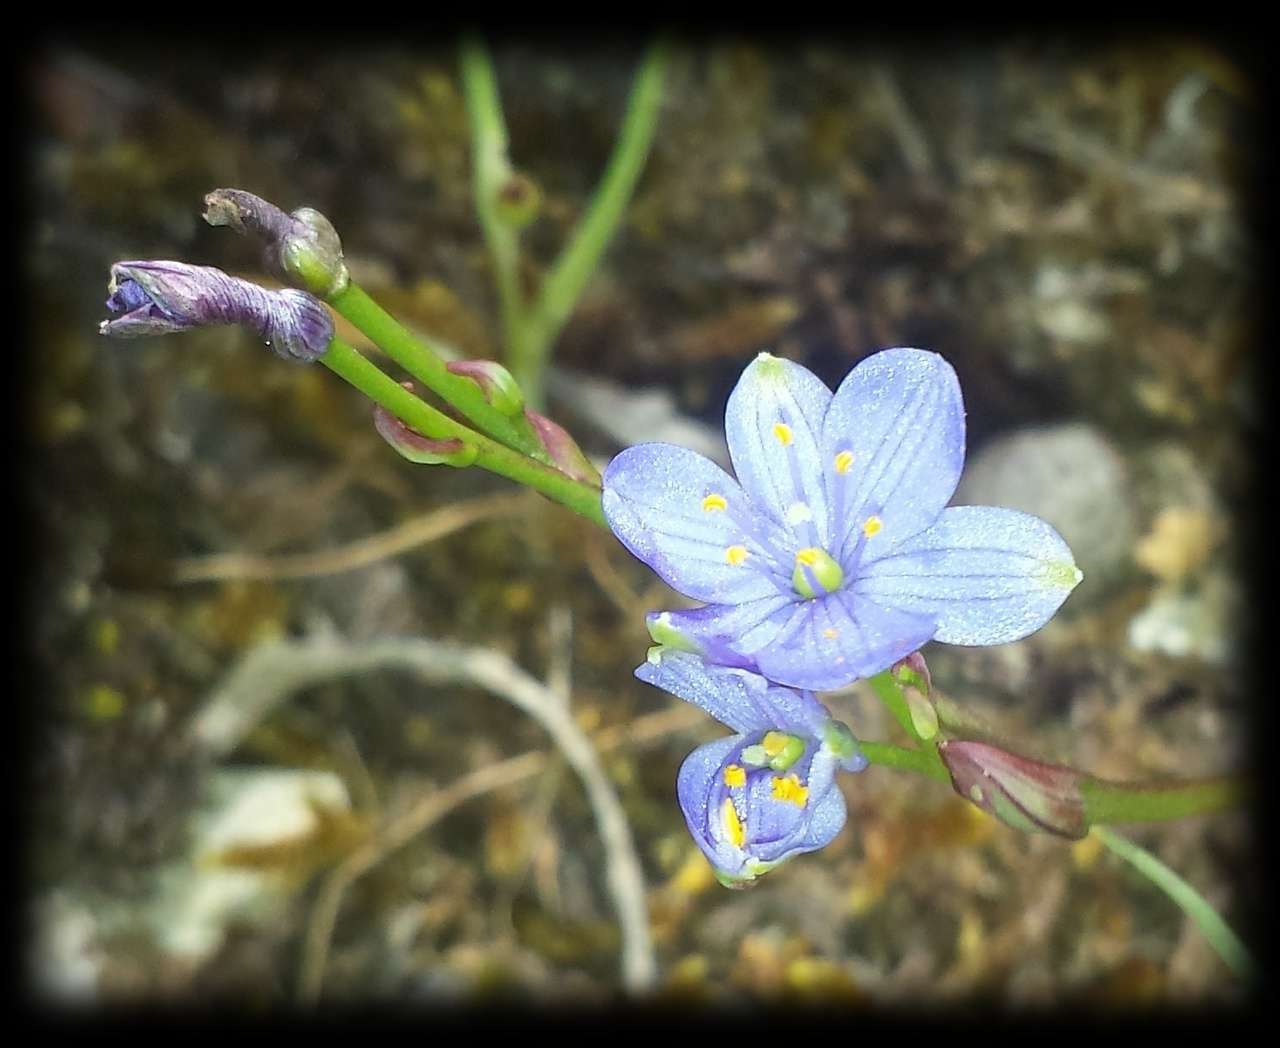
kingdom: Plantae
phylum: Tracheophyta
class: Liliopsida
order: Asparagales
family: Asphodelaceae
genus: Chamaescilla
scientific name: Chamaescilla corymbosa
